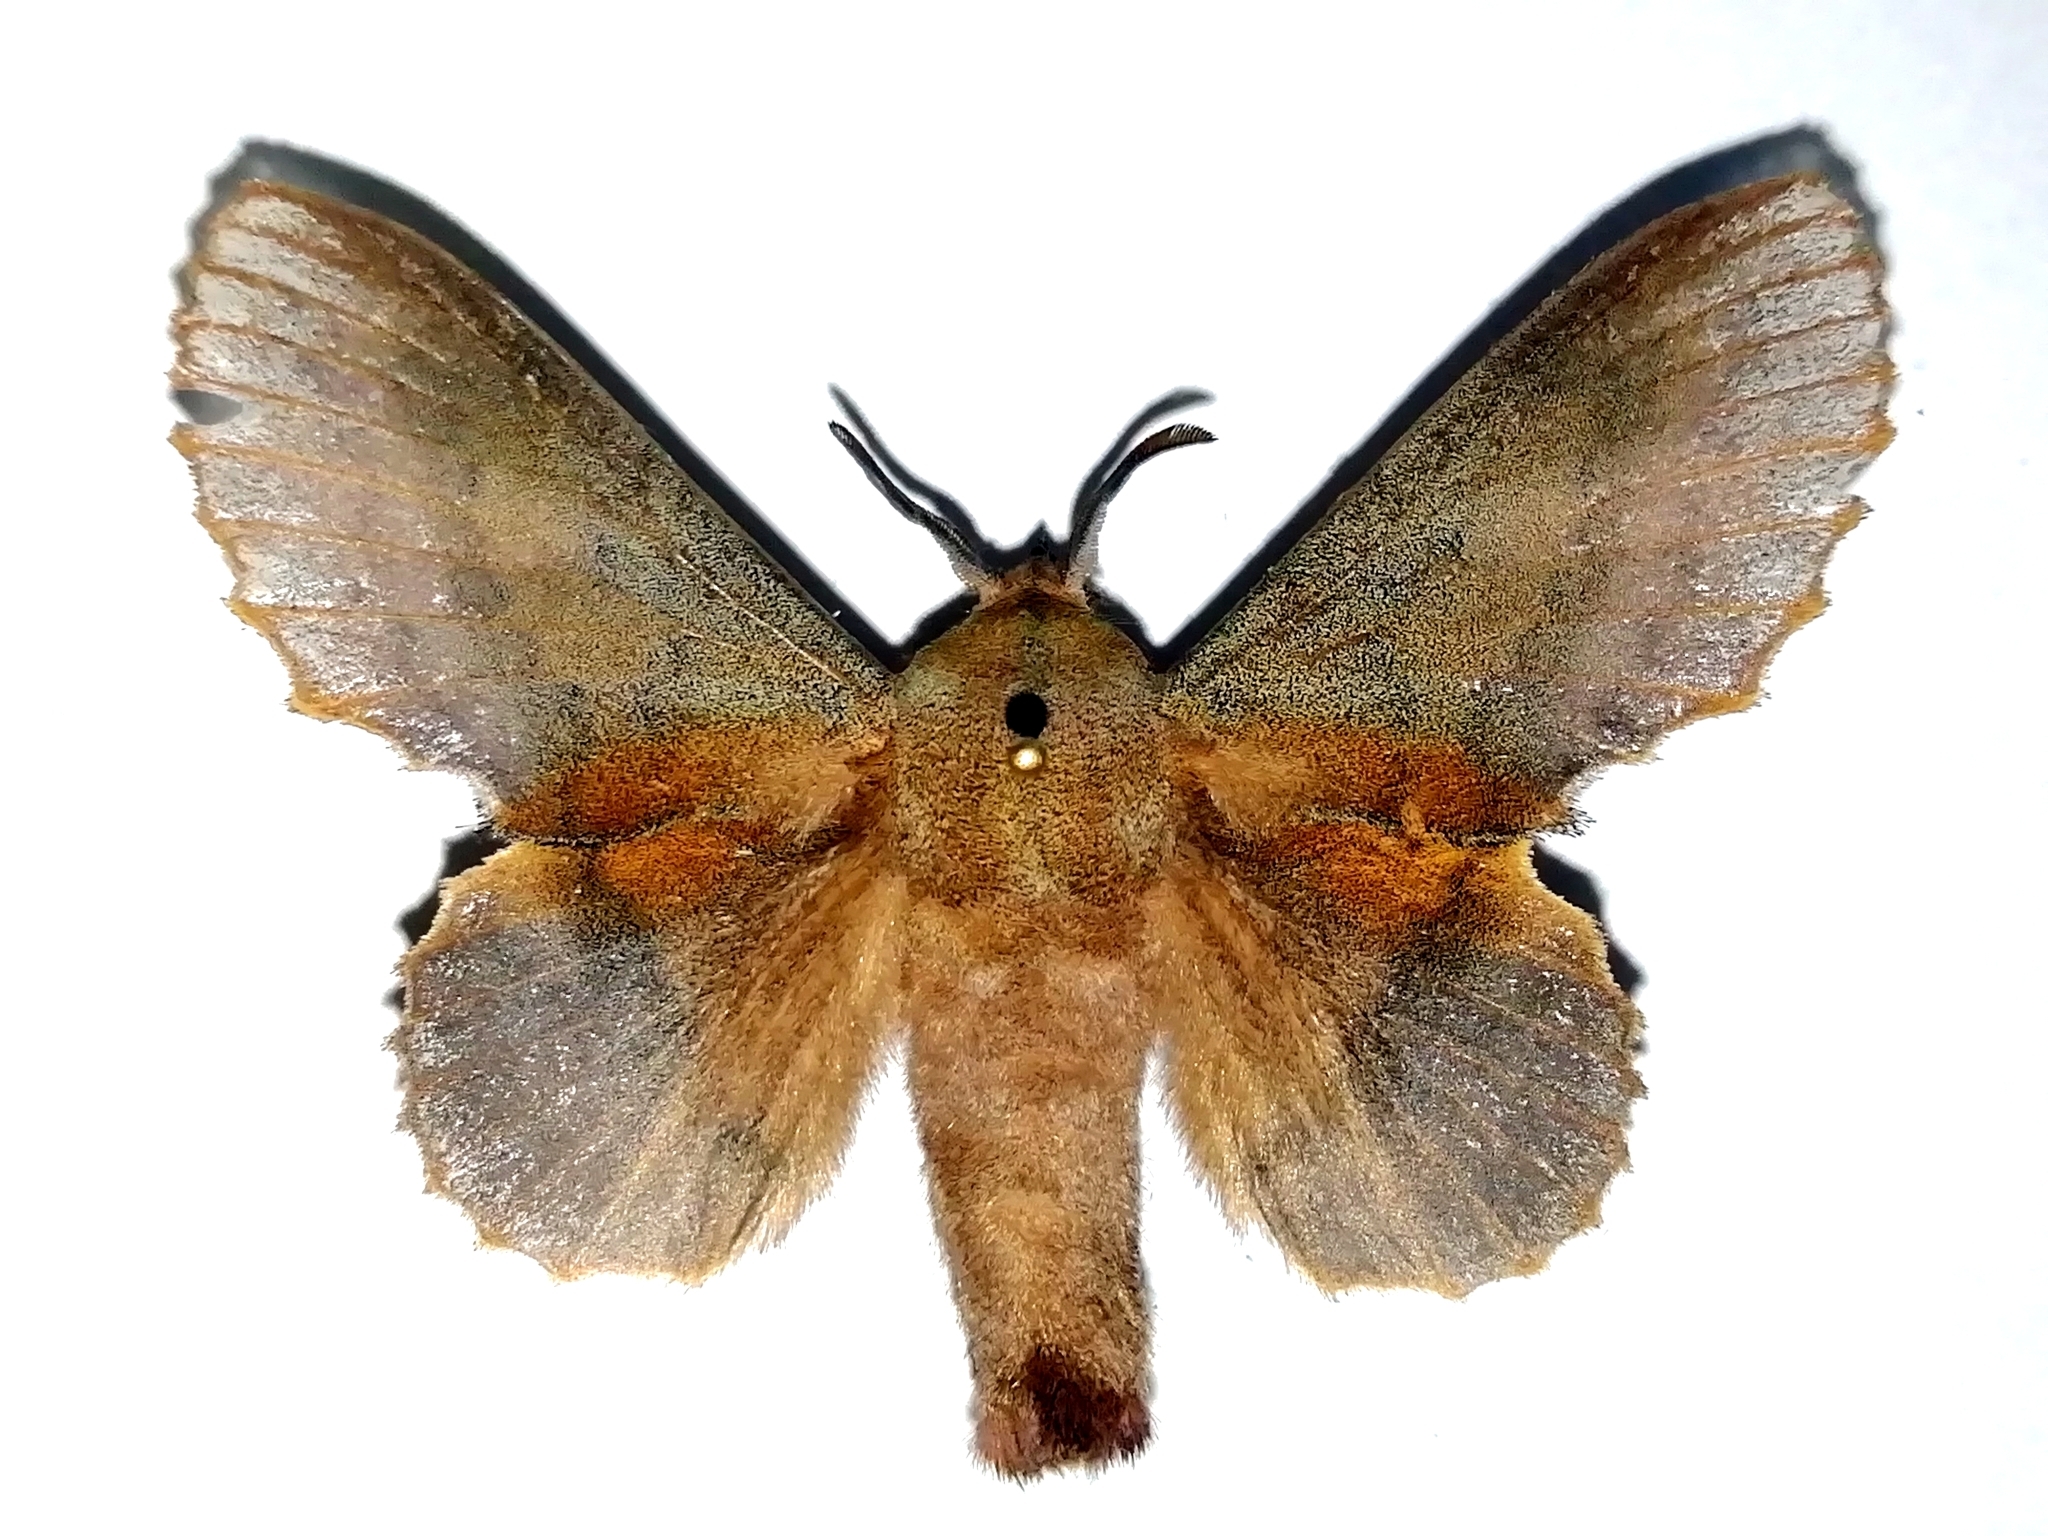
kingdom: Animalia
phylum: Arthropoda
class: Insecta
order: Lepidoptera
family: Lasiocampidae
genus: Gastropacha
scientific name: Gastropacha quercifolia
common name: Lappet
